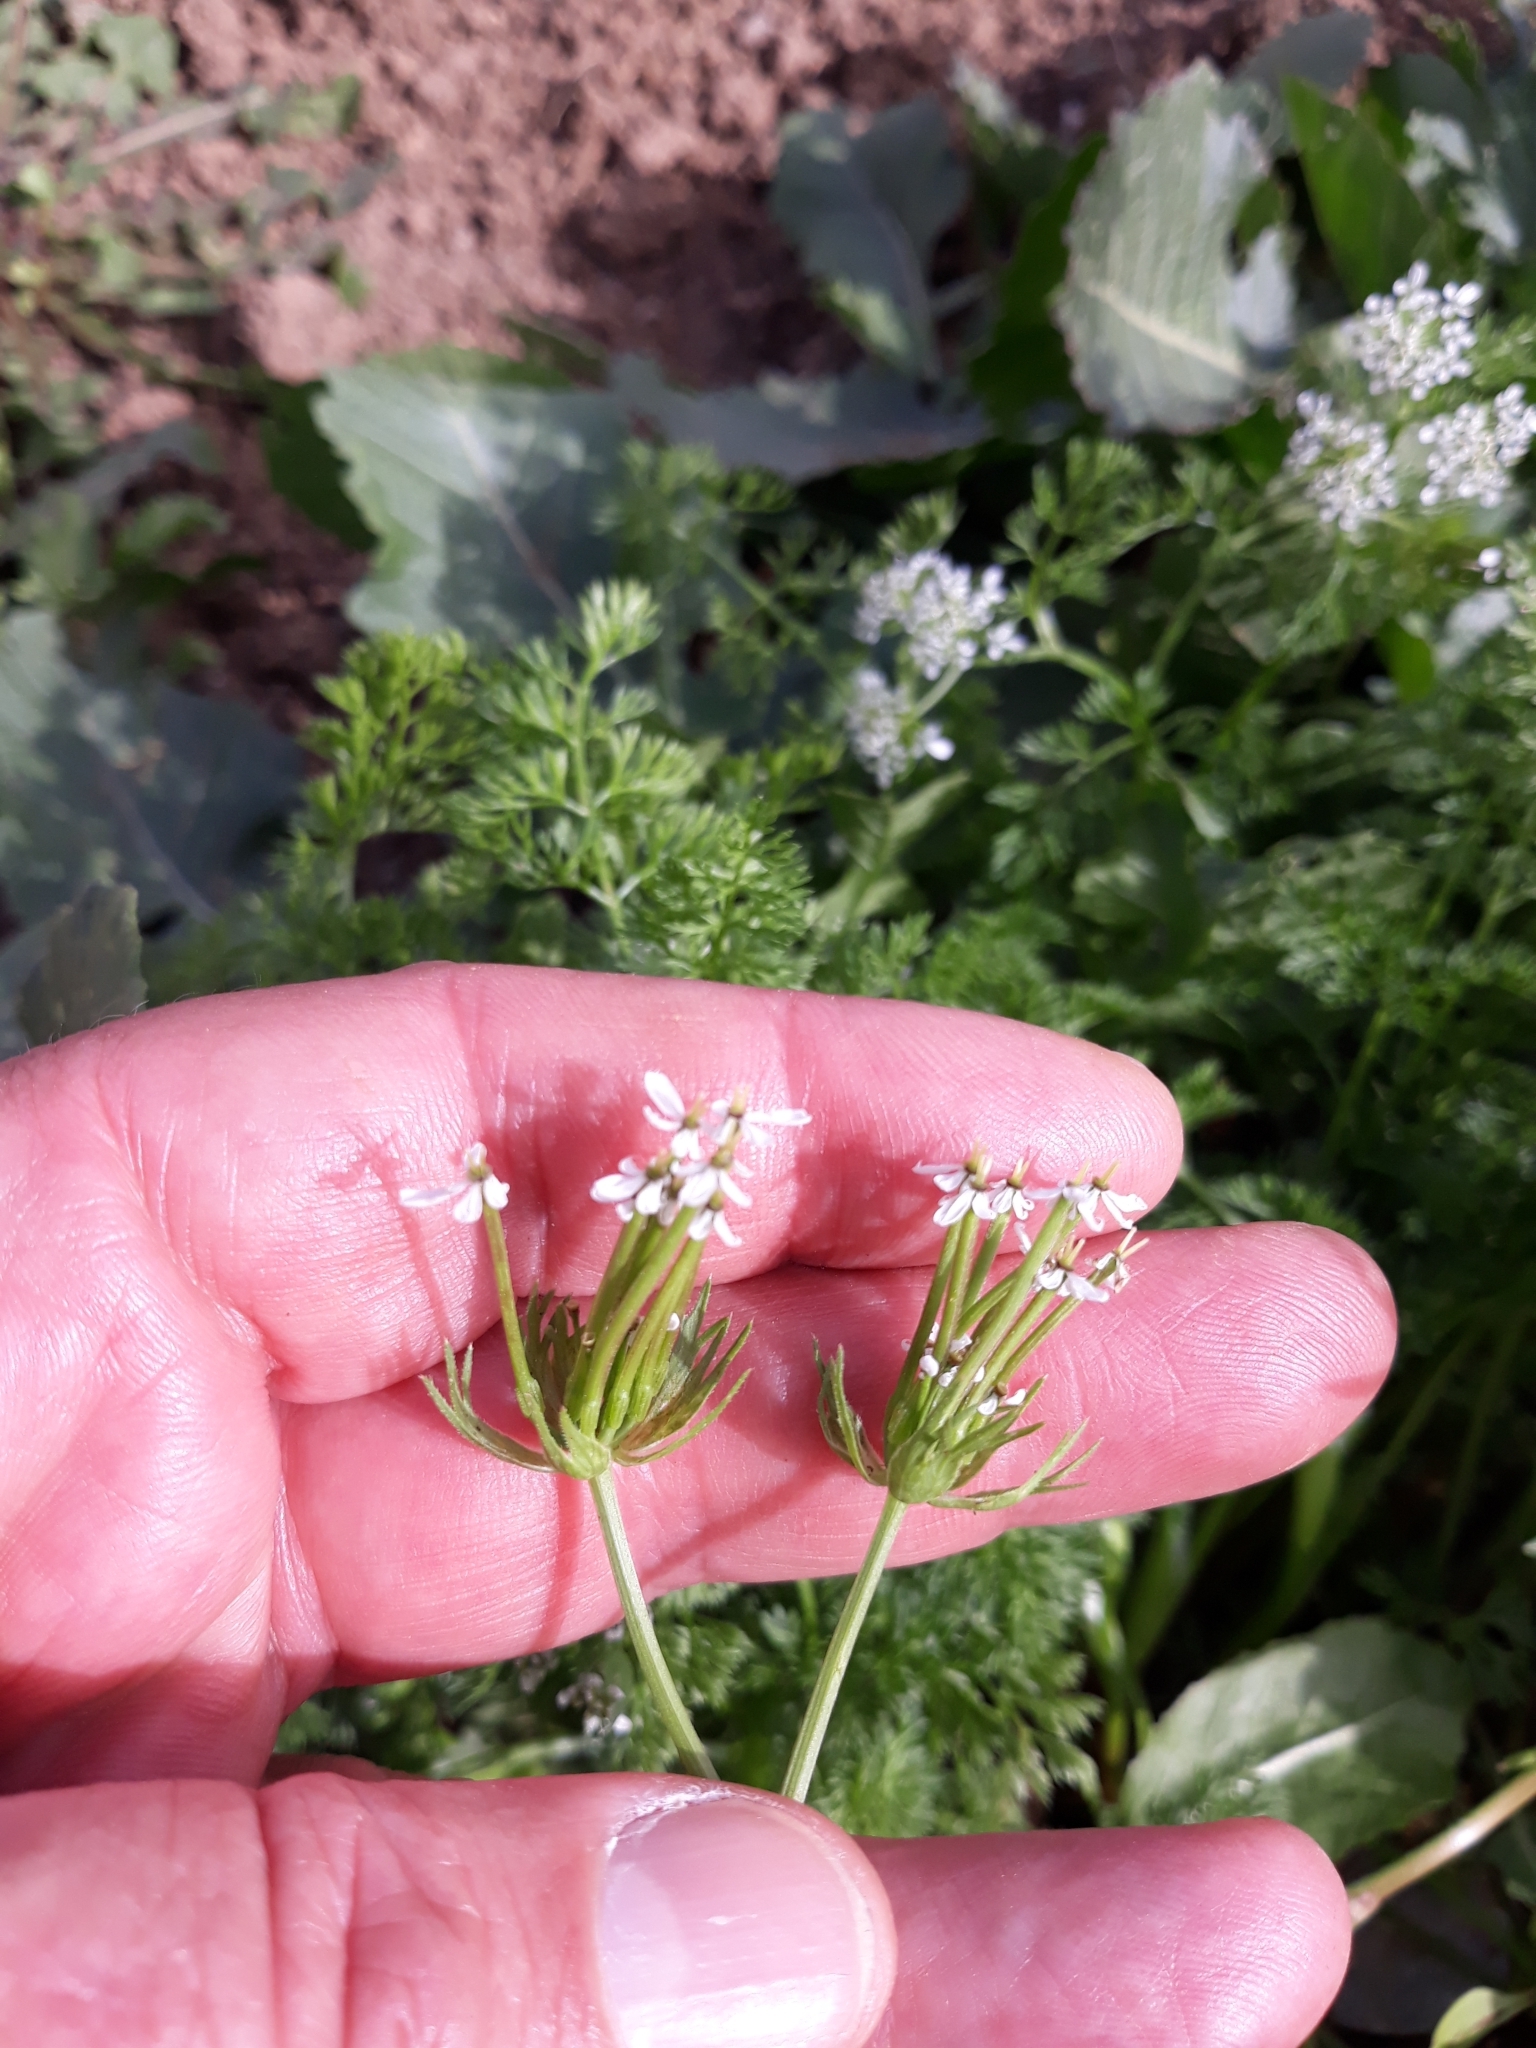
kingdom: Plantae
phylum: Tracheophyta
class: Magnoliopsida
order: Apiales
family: Apiaceae
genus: Scandix
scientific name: Scandix pecten-veneris
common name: Shepherd's-needle
